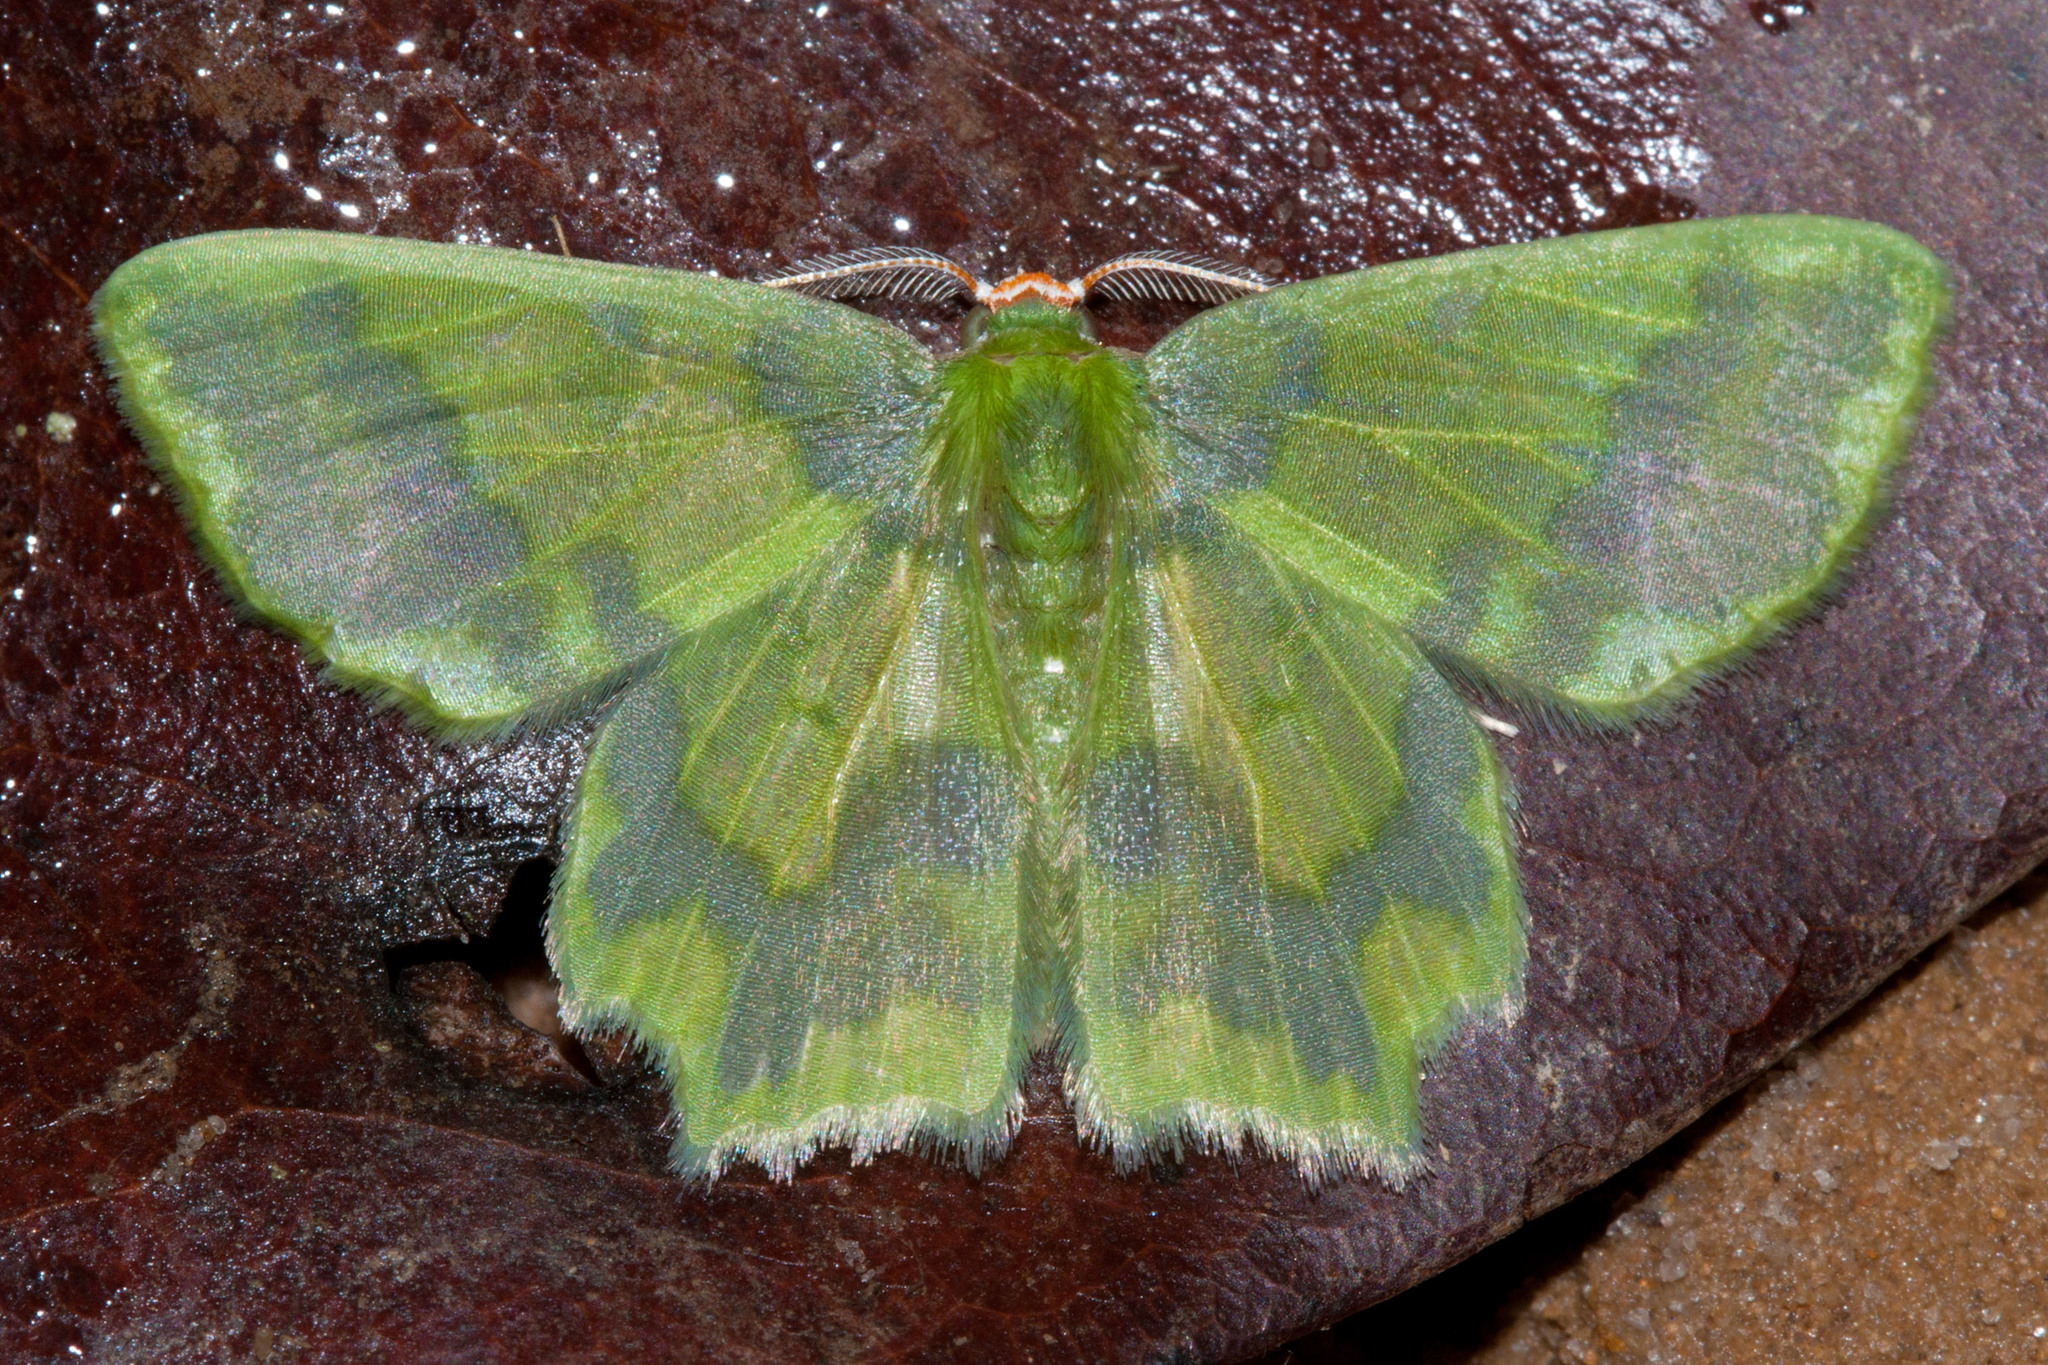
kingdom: Animalia
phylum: Arthropoda
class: Insecta
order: Lepidoptera
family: Geometridae
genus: Cathydata
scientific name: Cathydata batina
